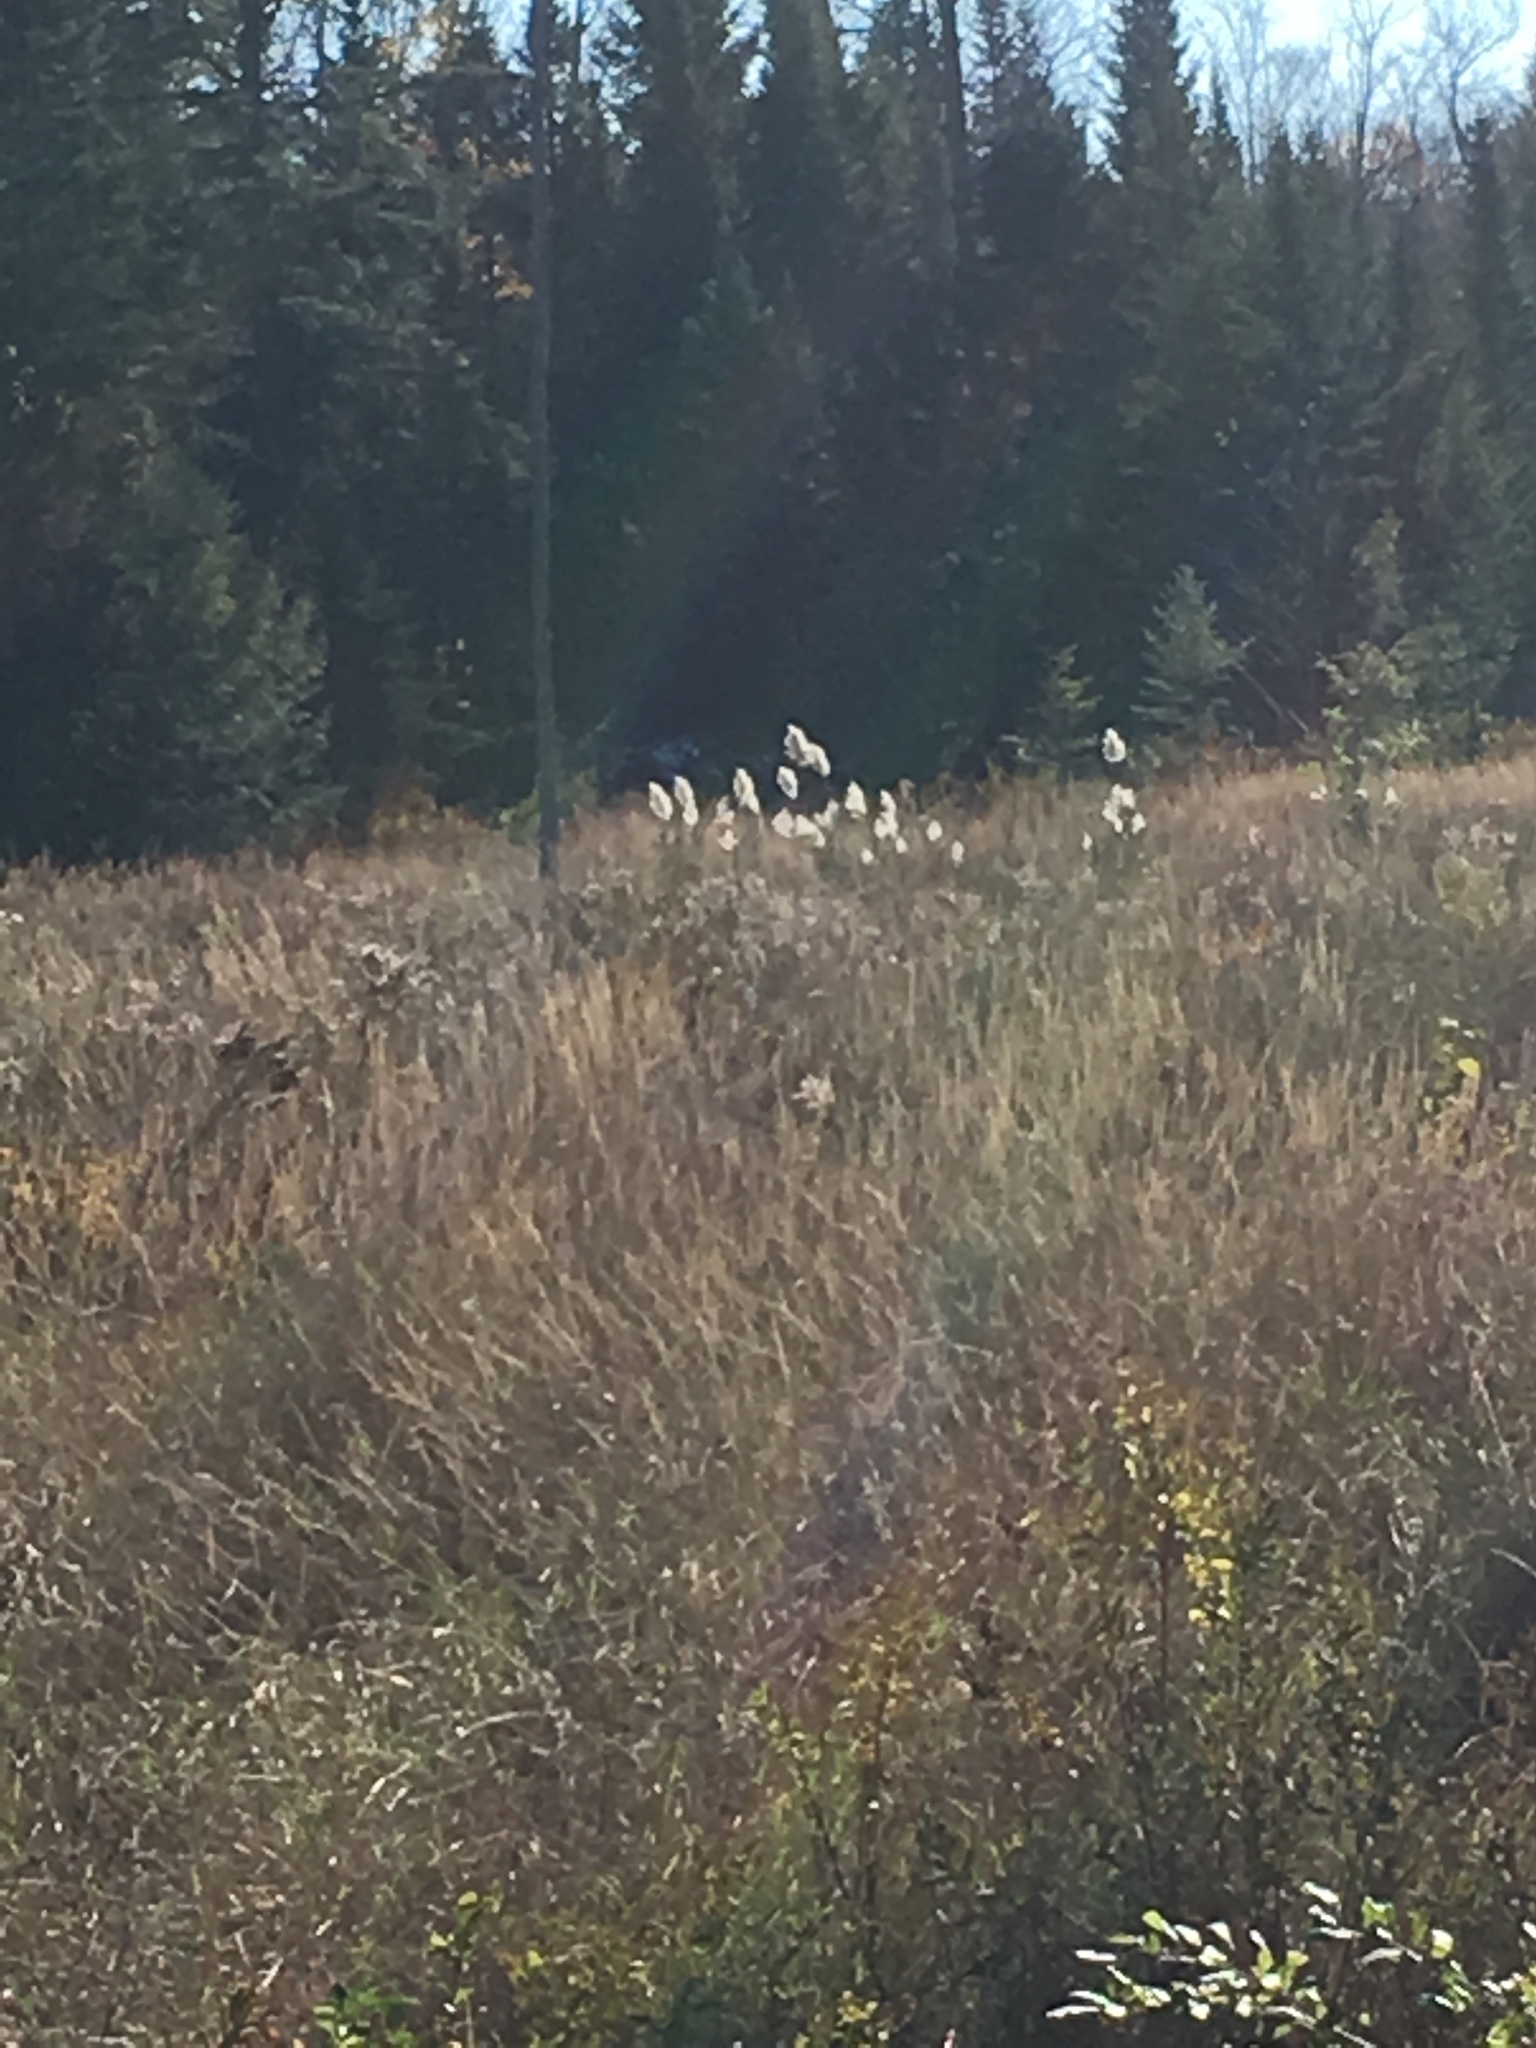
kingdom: Plantae
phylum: Tracheophyta
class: Liliopsida
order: Poales
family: Poaceae
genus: Phragmites
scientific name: Phragmites australis
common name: Common reed
